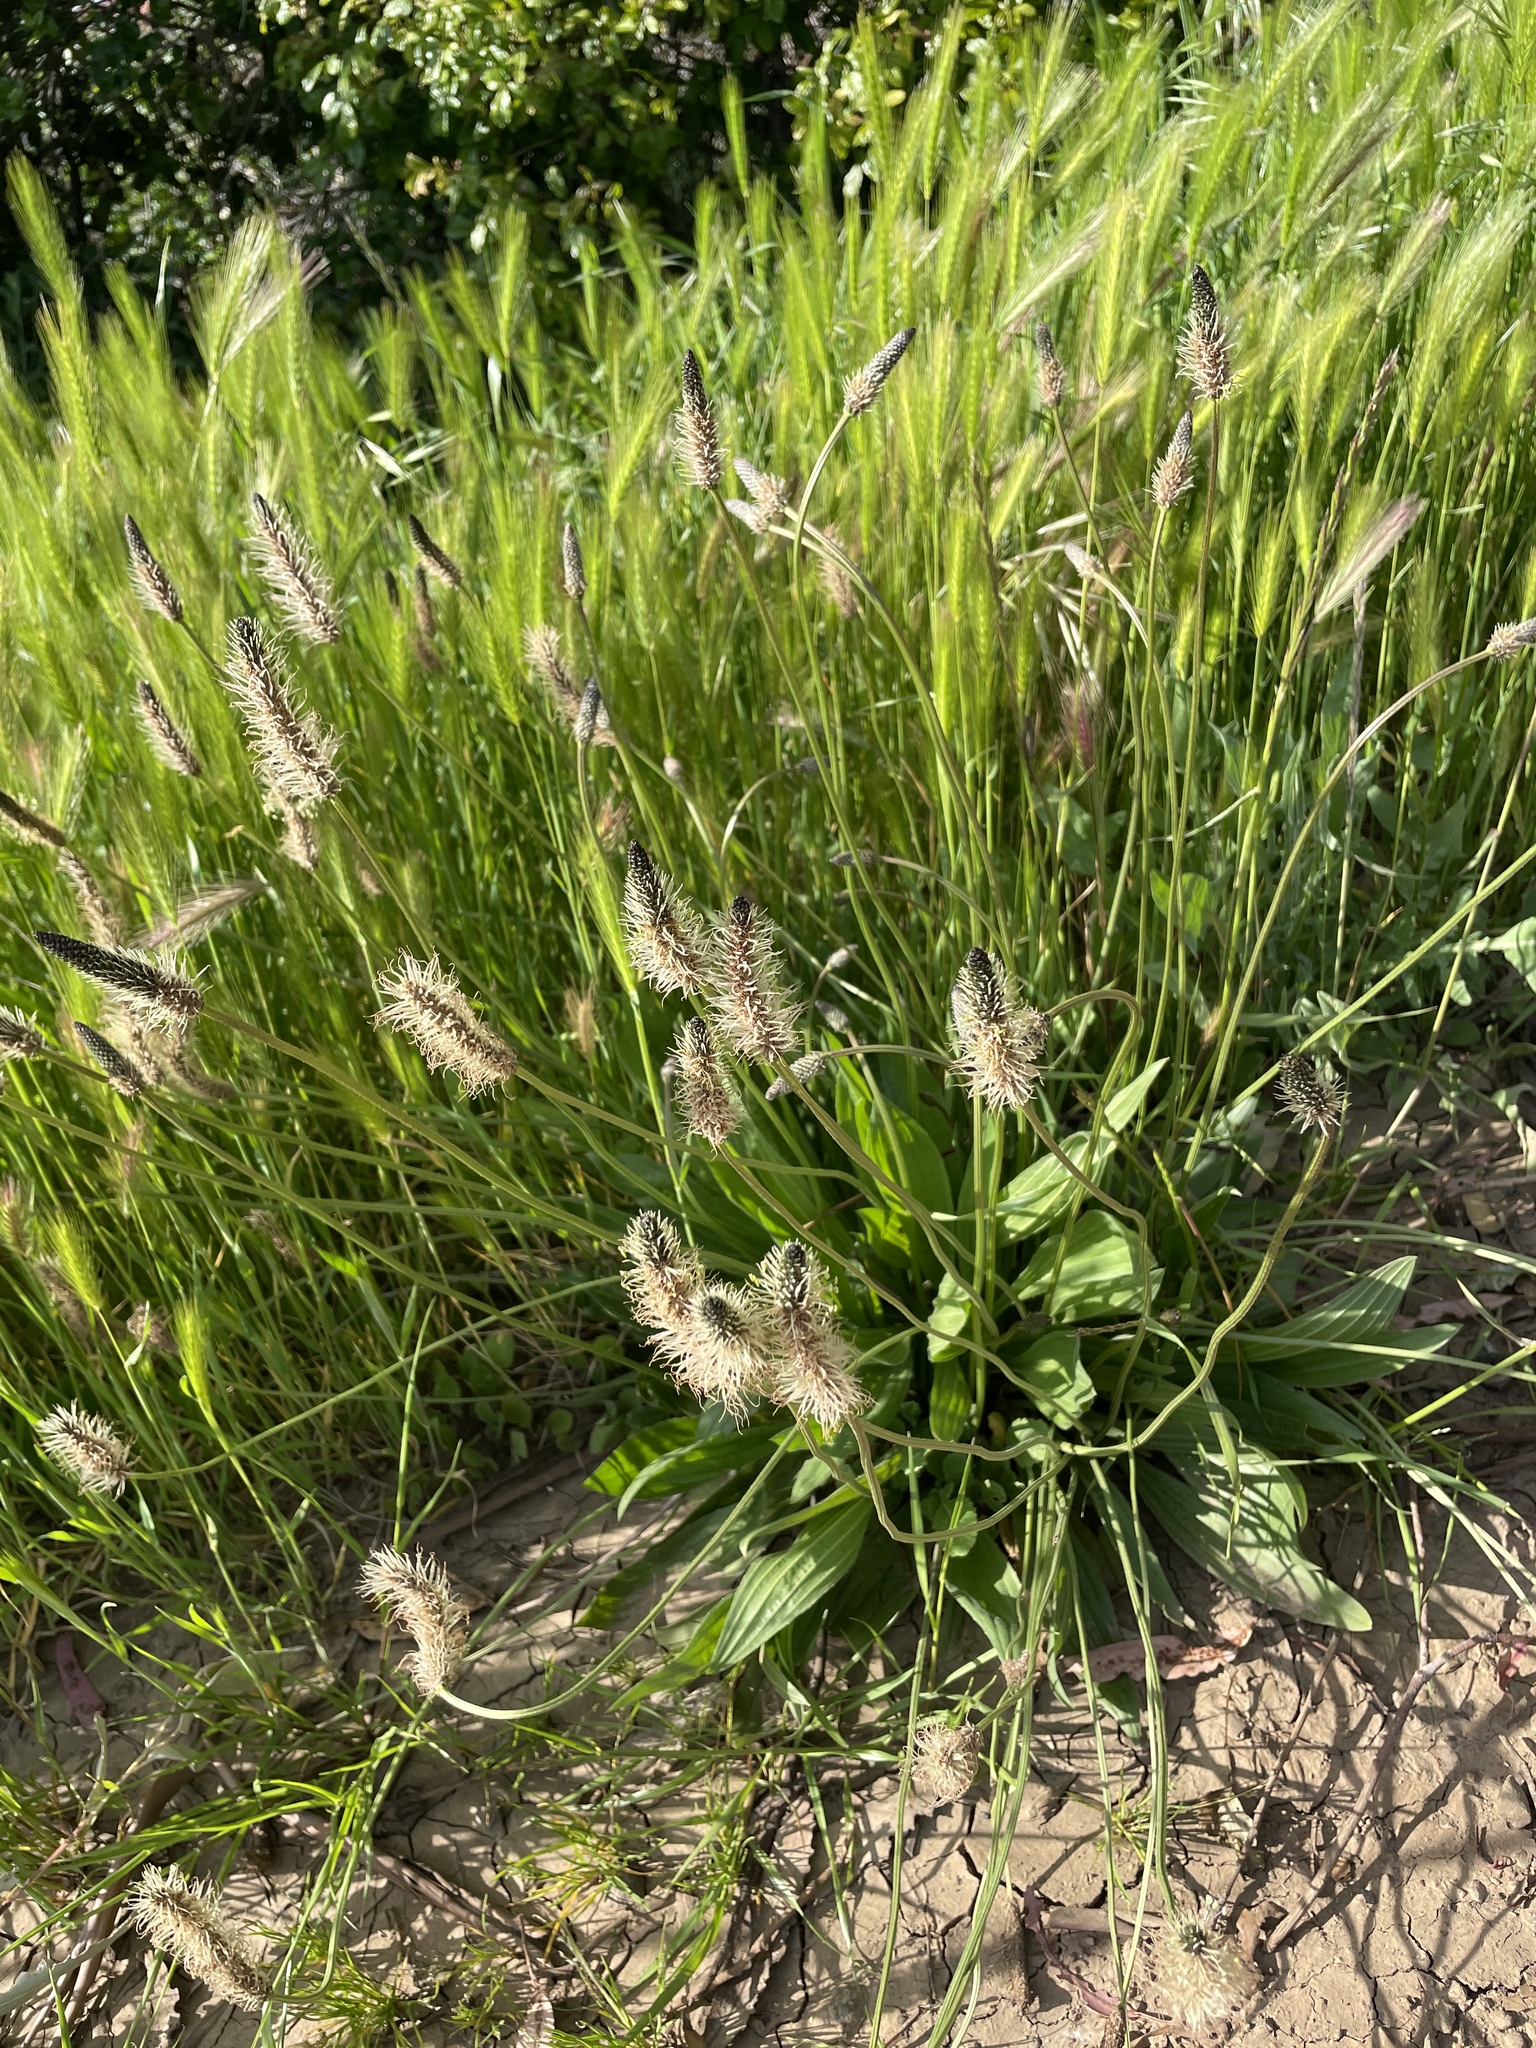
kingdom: Plantae
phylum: Tracheophyta
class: Magnoliopsida
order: Lamiales
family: Plantaginaceae
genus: Plantago
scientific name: Plantago lanceolata
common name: Ribwort plantain
